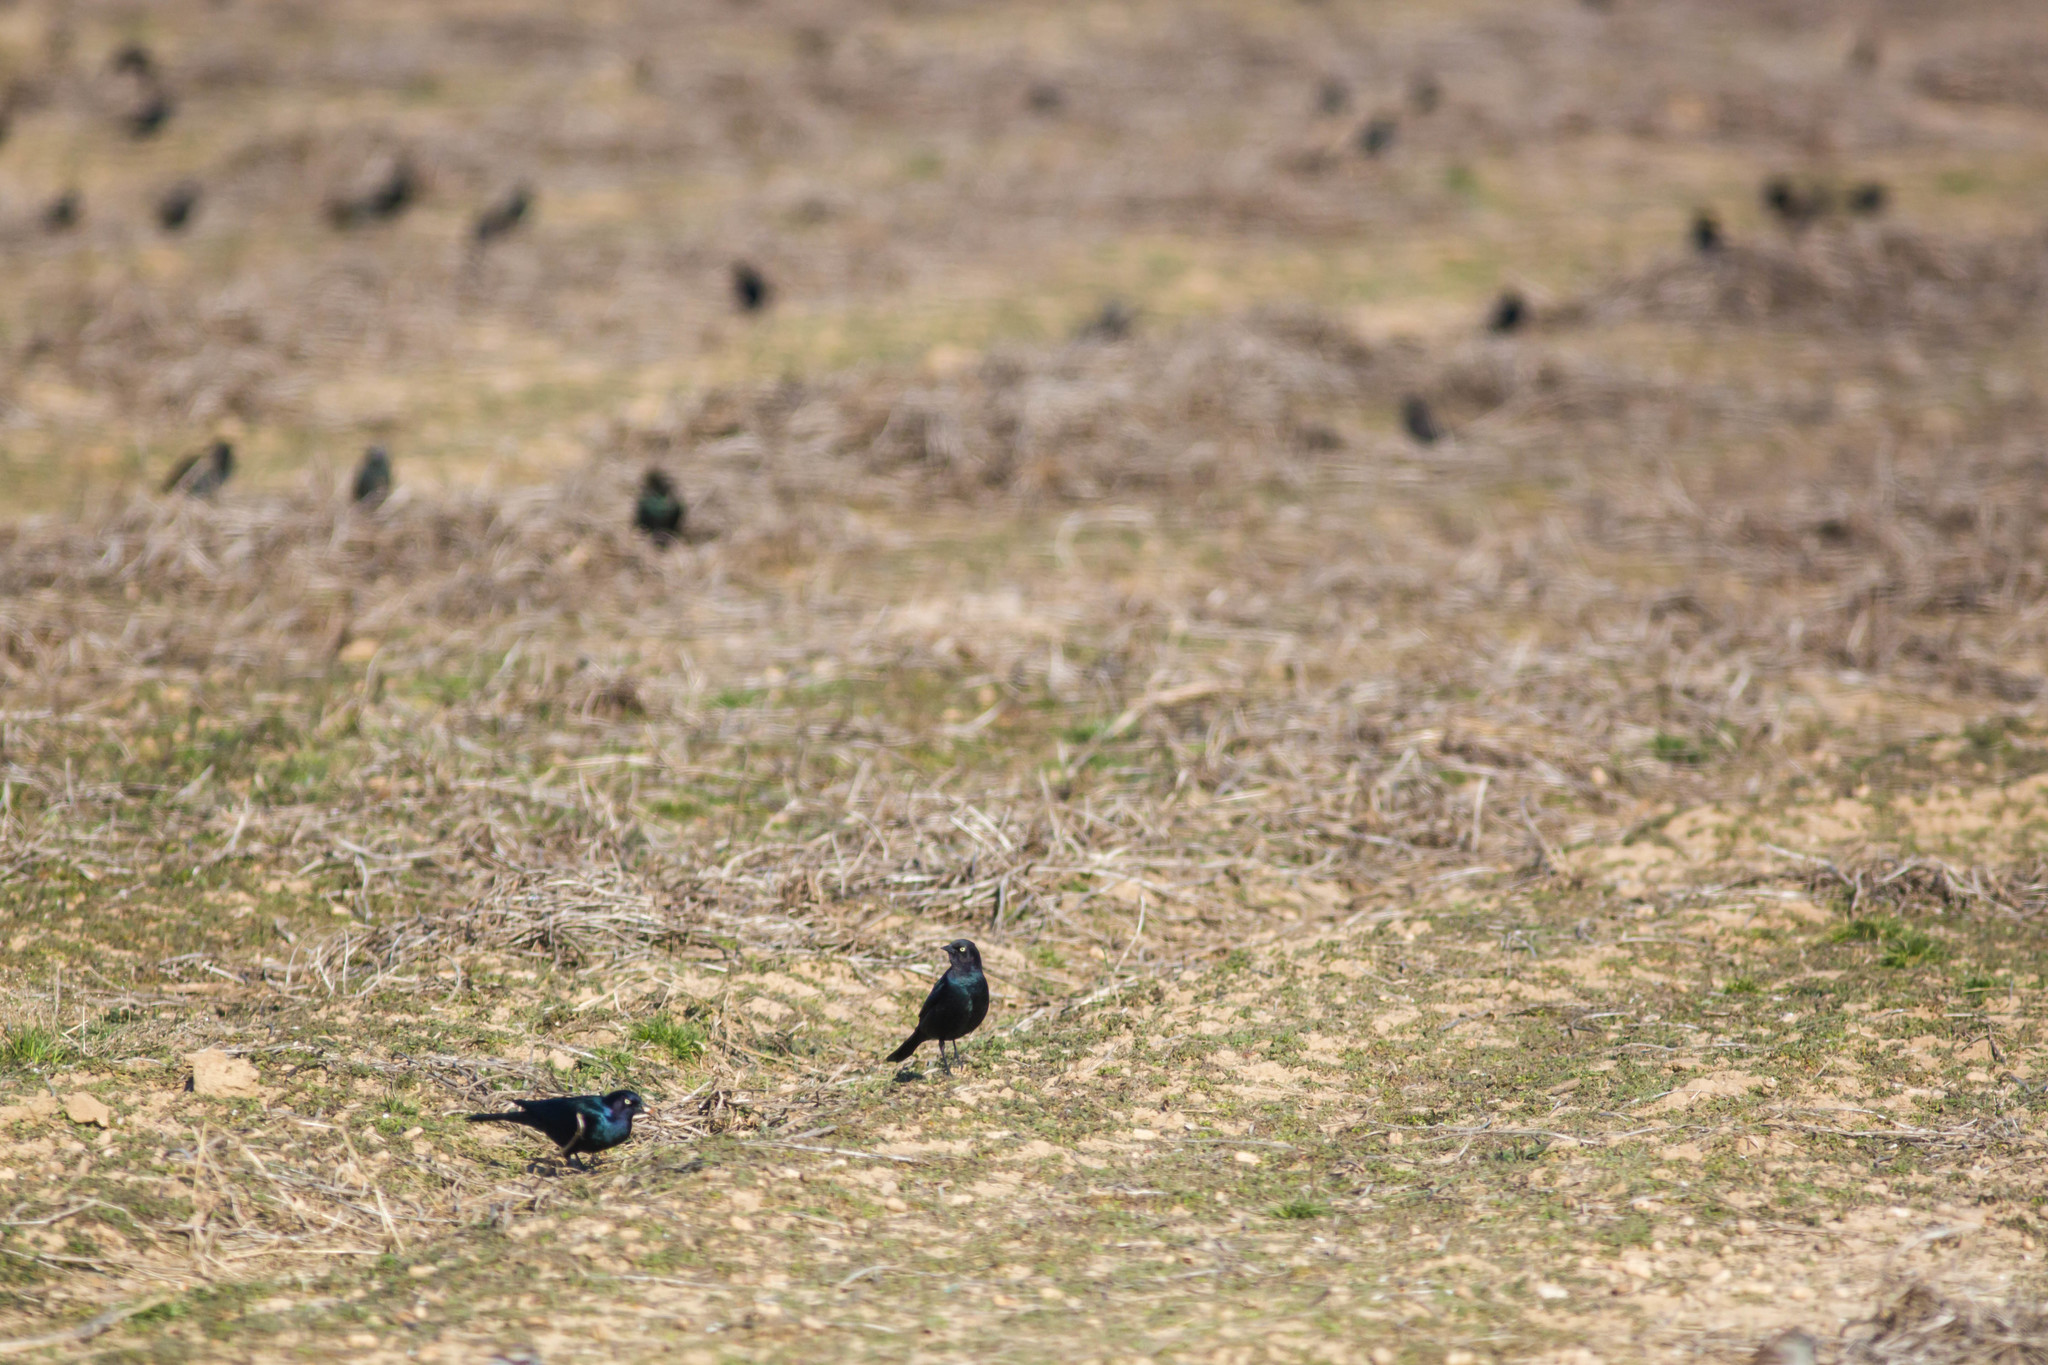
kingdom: Animalia
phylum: Chordata
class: Aves
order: Passeriformes
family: Icteridae
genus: Euphagus
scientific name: Euphagus cyanocephalus
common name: Brewer's blackbird
